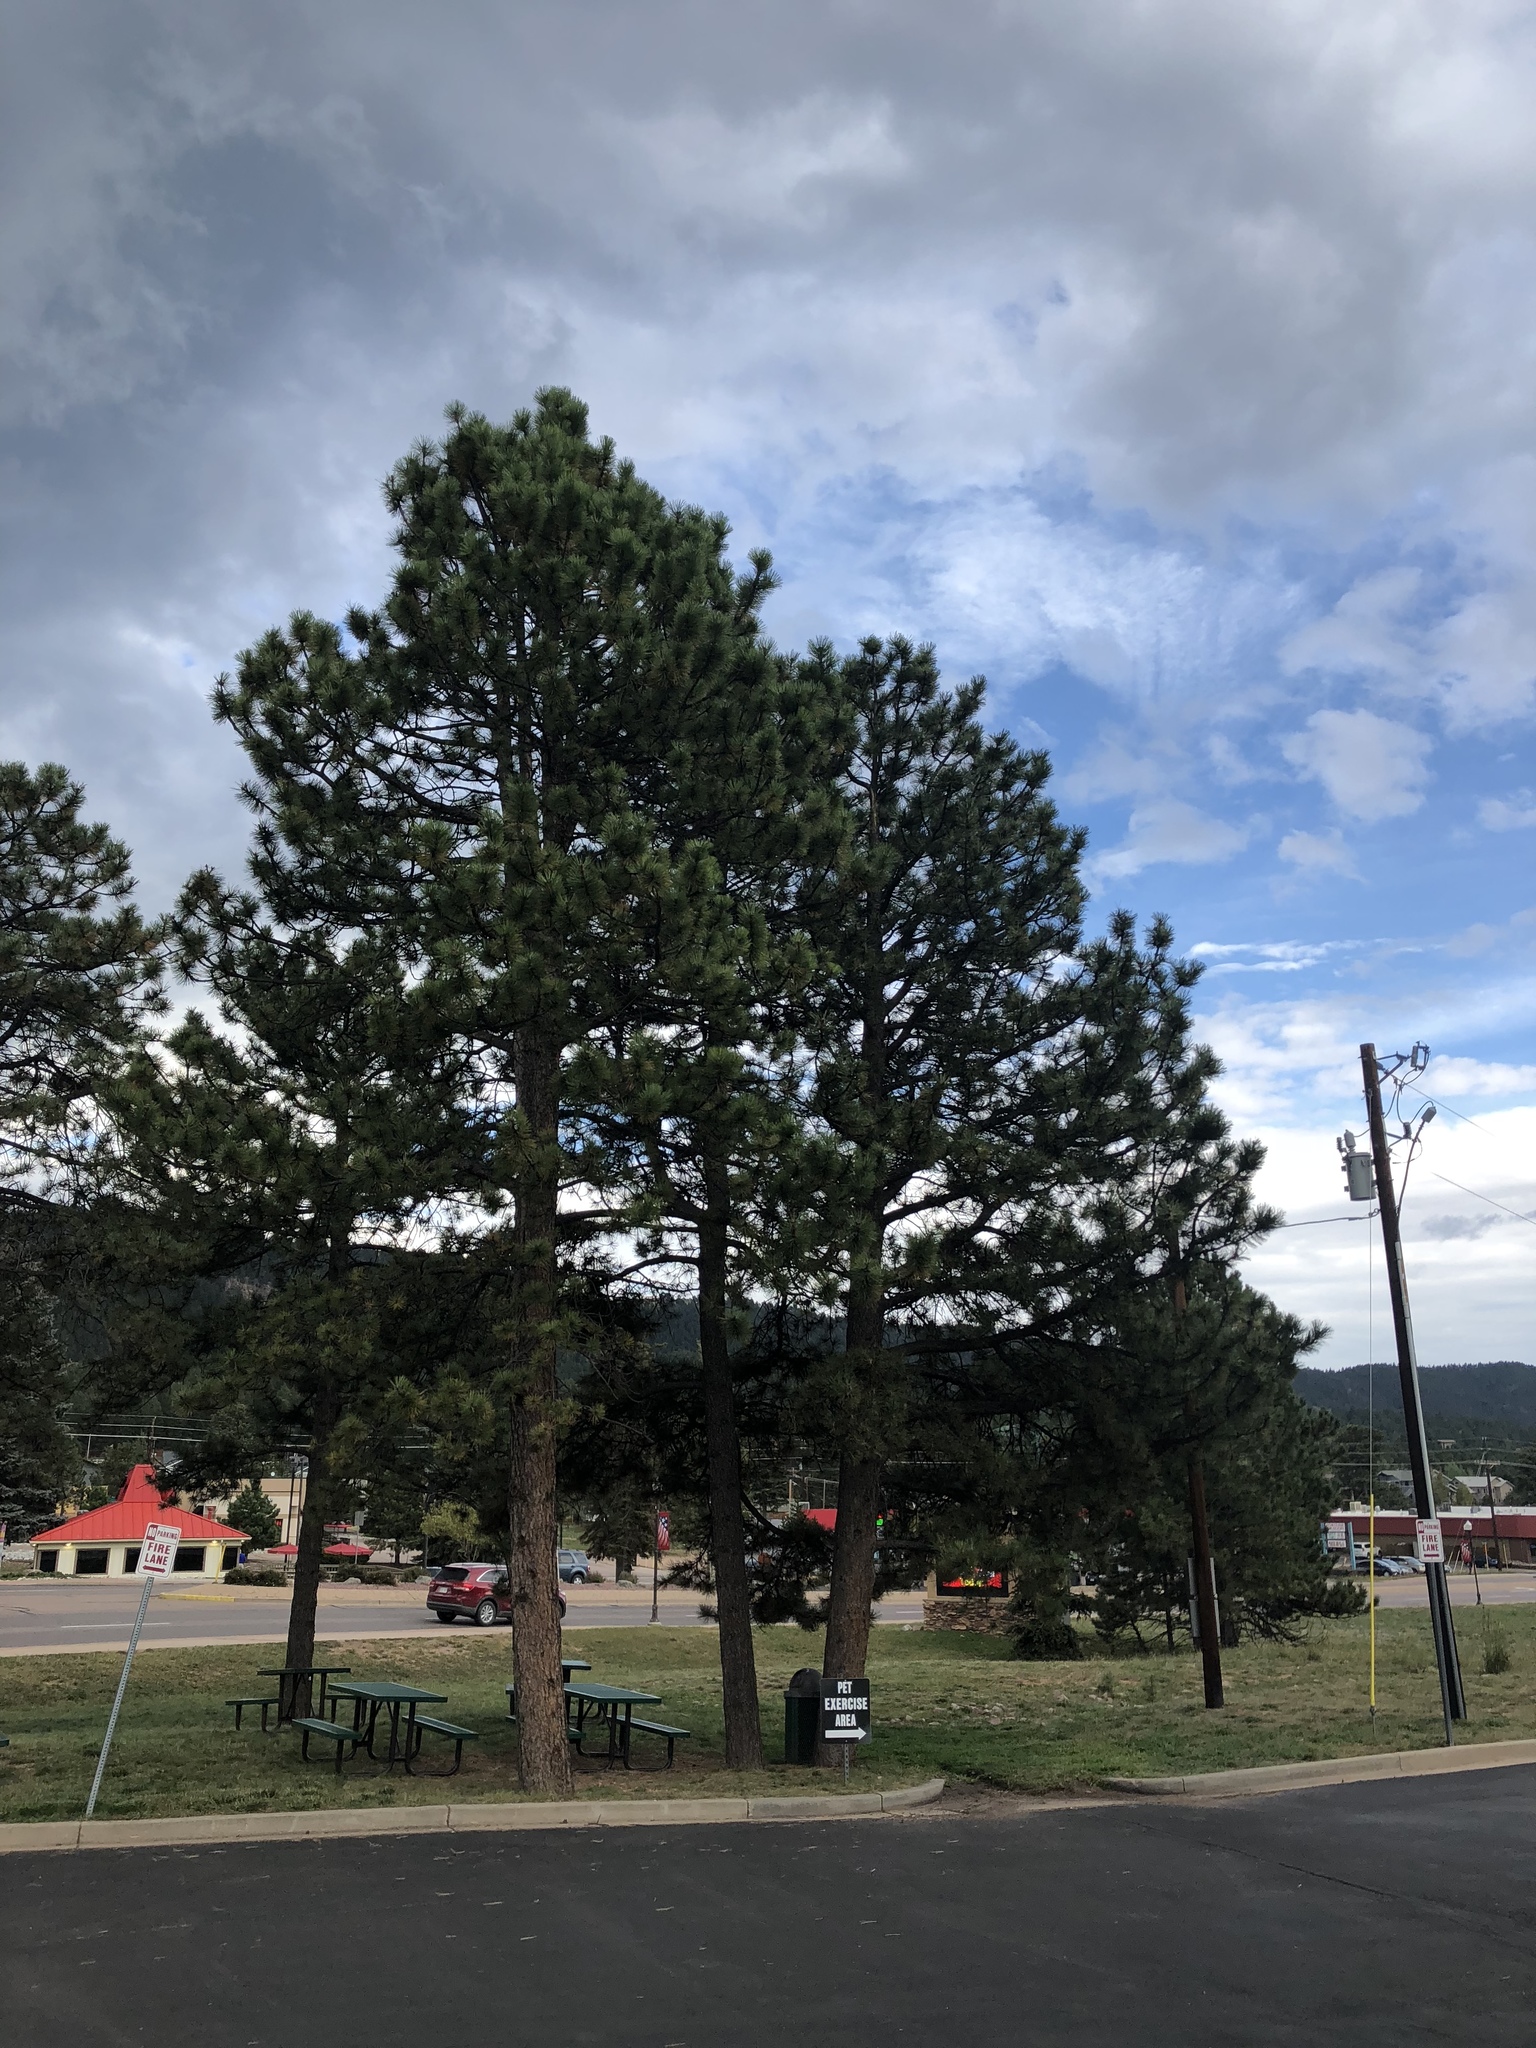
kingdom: Plantae
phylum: Tracheophyta
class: Pinopsida
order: Pinales
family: Pinaceae
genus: Pinus
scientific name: Pinus ponderosa
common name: Western yellow-pine
